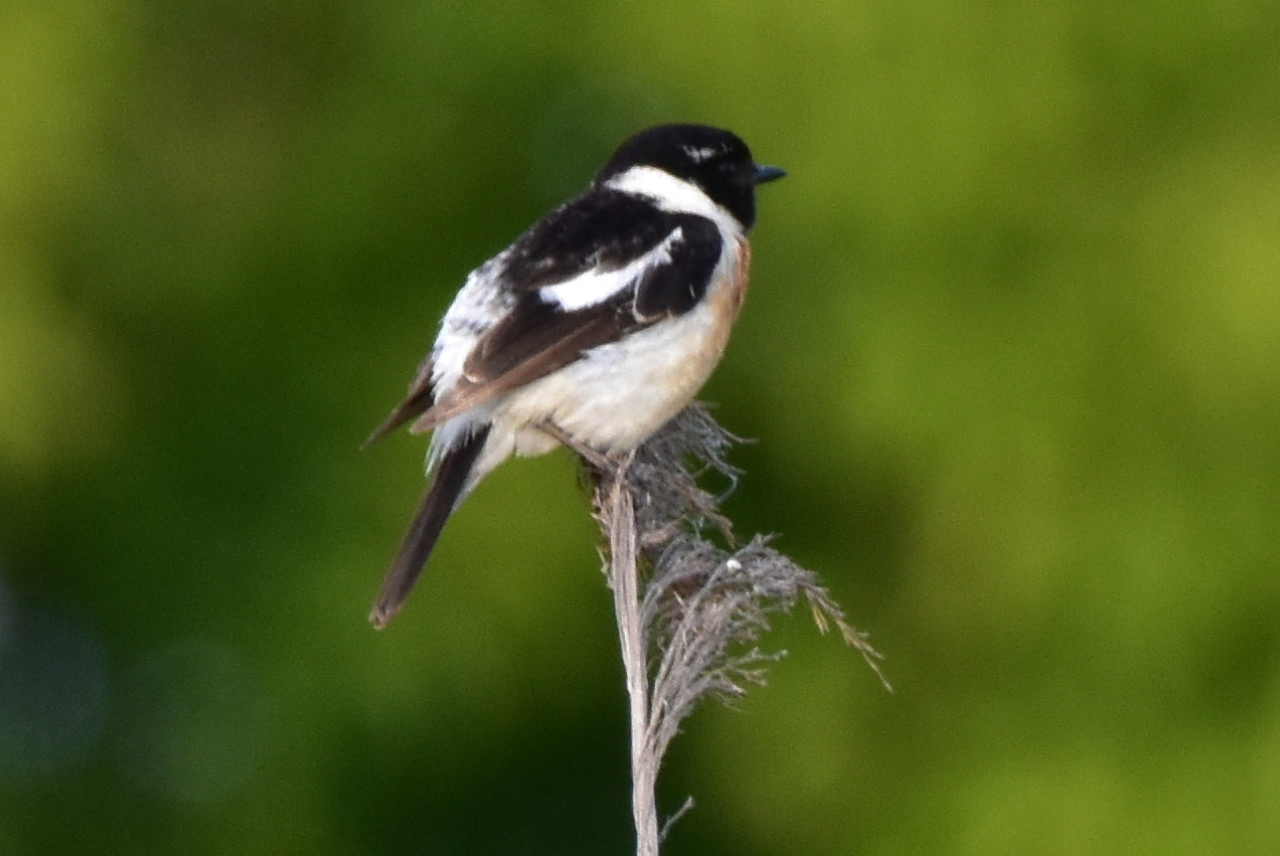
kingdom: Animalia
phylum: Chordata
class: Aves
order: Passeriformes
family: Muscicapidae
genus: Saxicola
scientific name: Saxicola maurus
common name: Siberian stonechat
